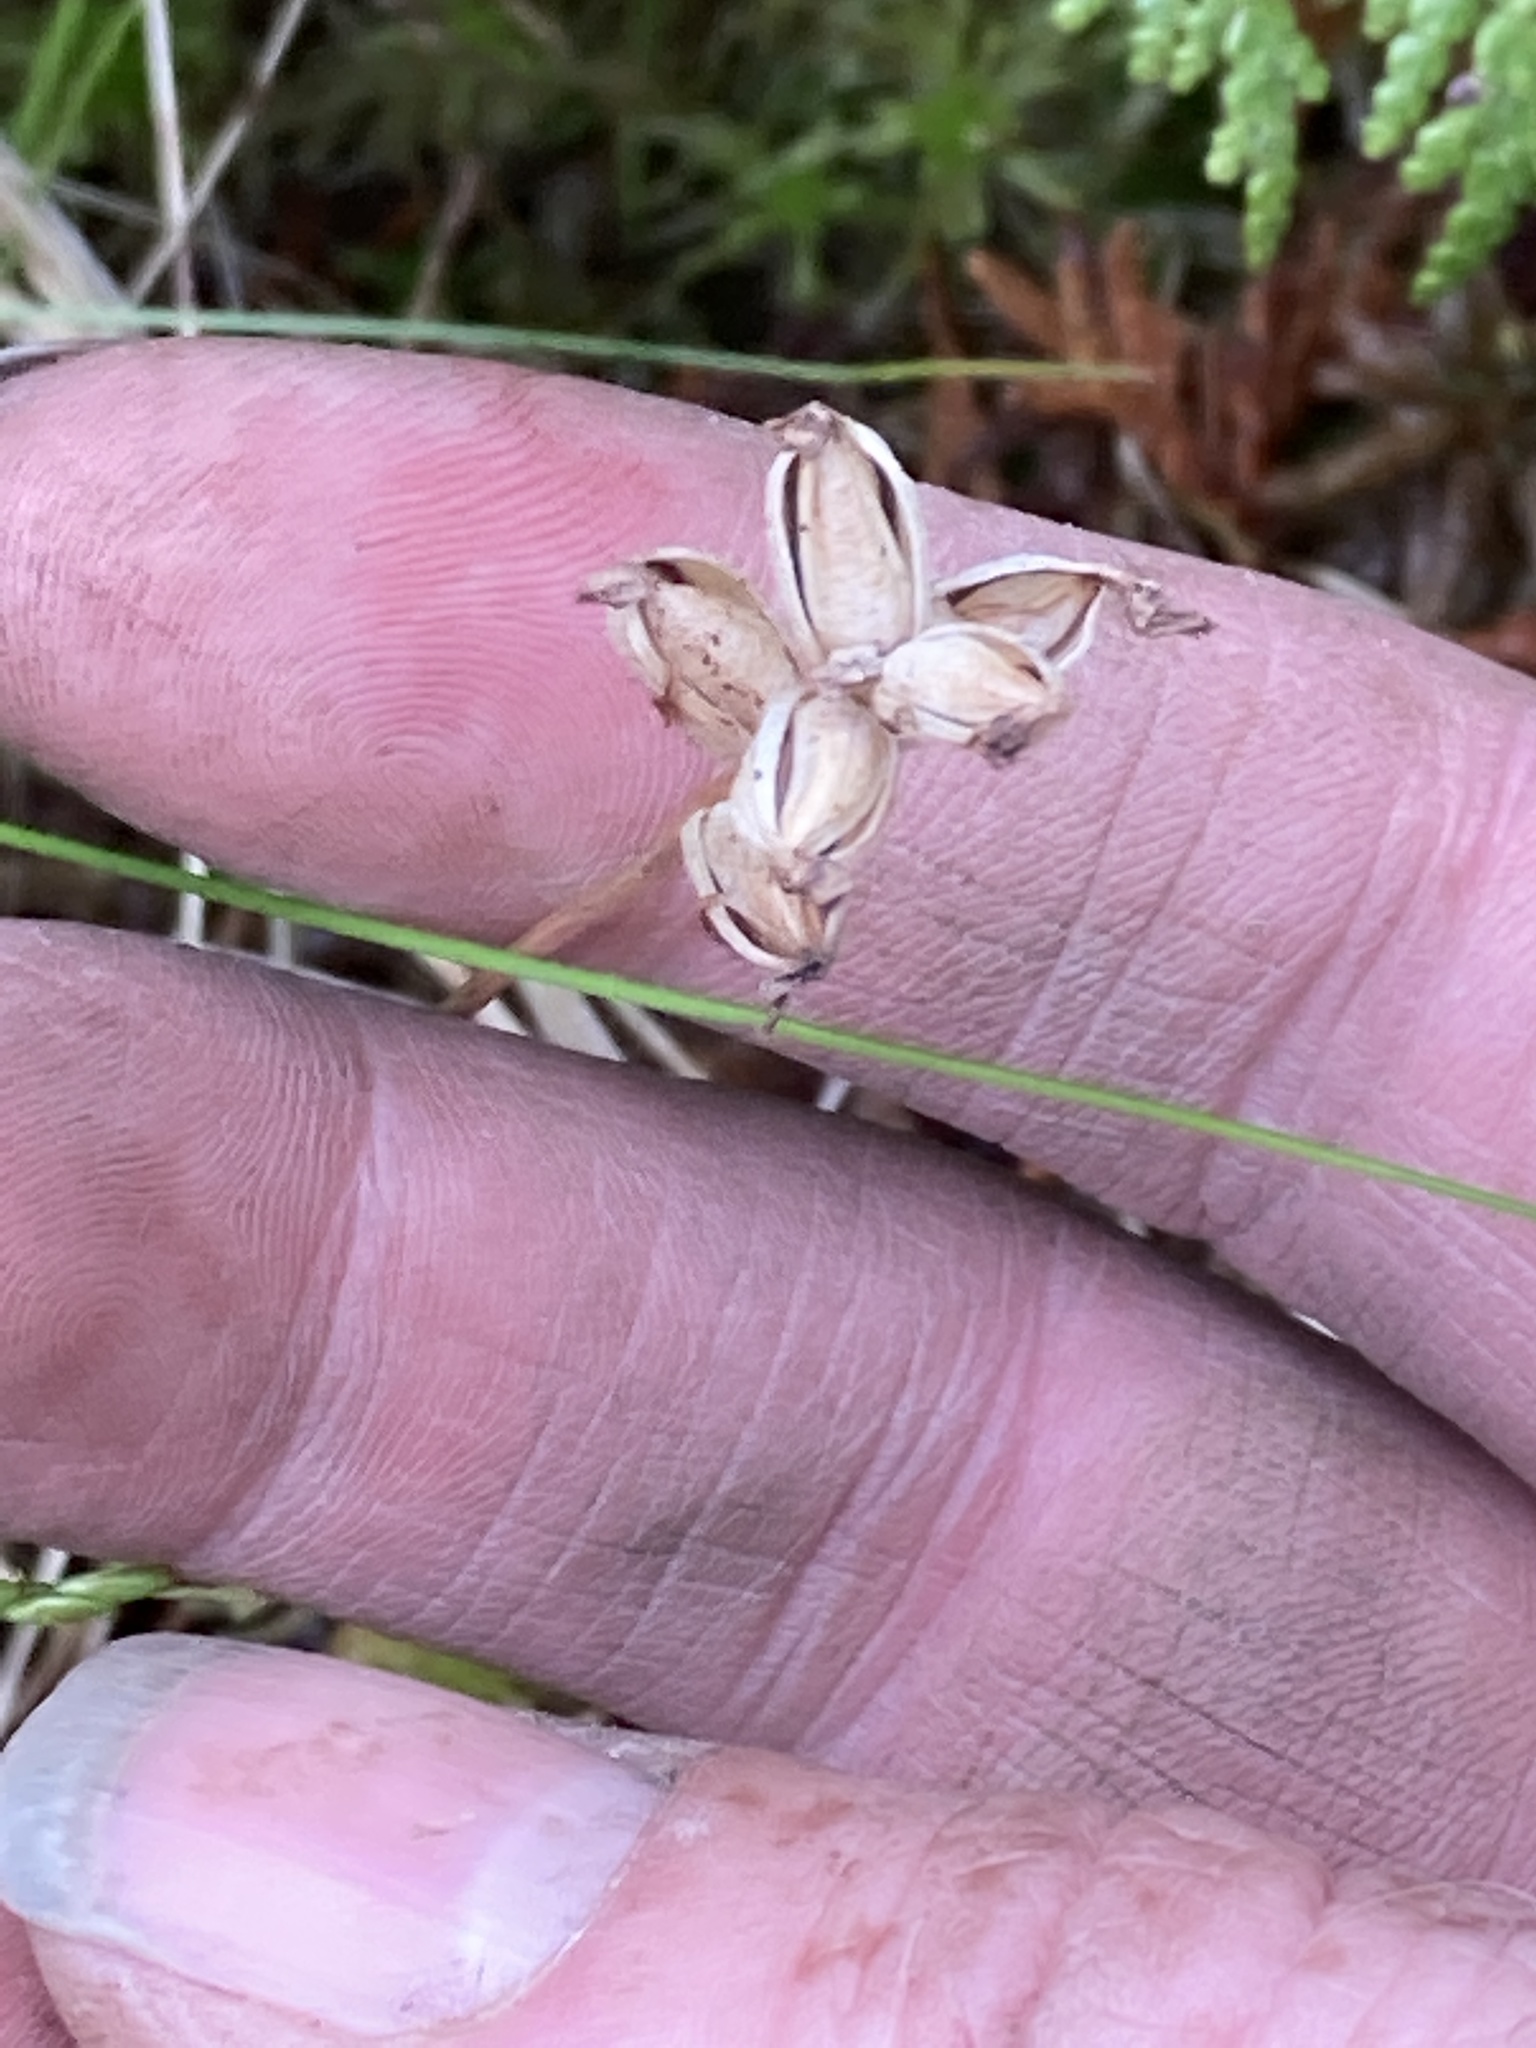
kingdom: Plantae
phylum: Tracheophyta
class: Liliopsida
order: Asparagales
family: Orchidaceae
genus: Platanthera
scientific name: Platanthera clavellata
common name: Club-spur orchid
